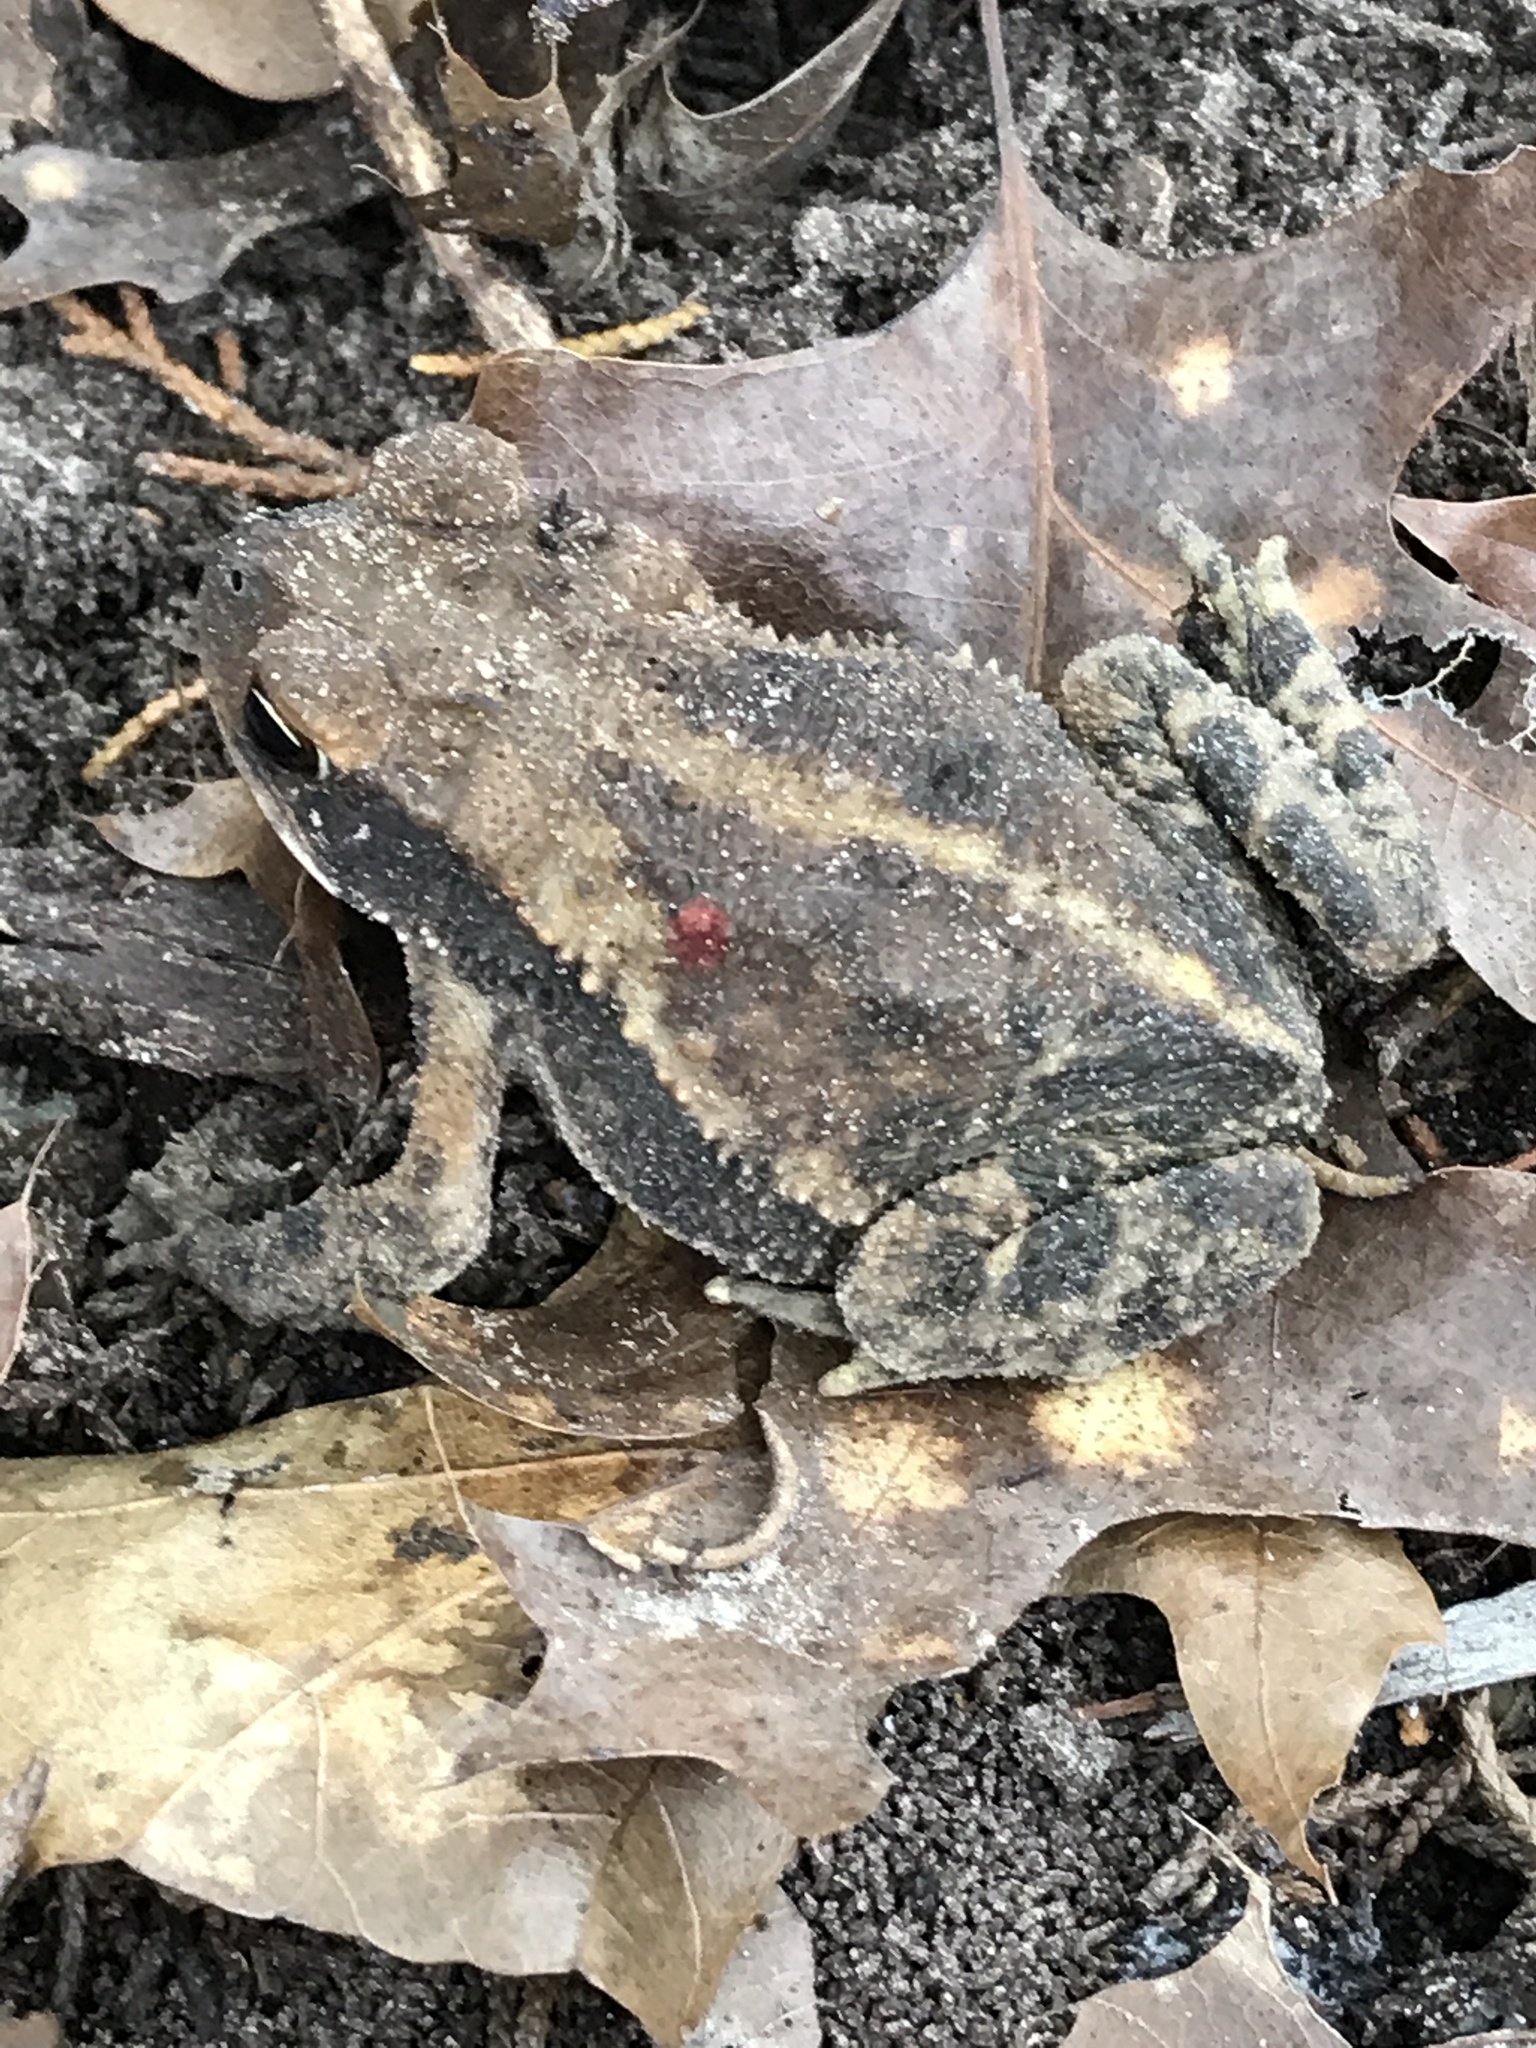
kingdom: Animalia
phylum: Chordata
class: Amphibia
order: Anura
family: Bufonidae
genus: Incilius
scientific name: Incilius nebulifer
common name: Gulf coast toad
